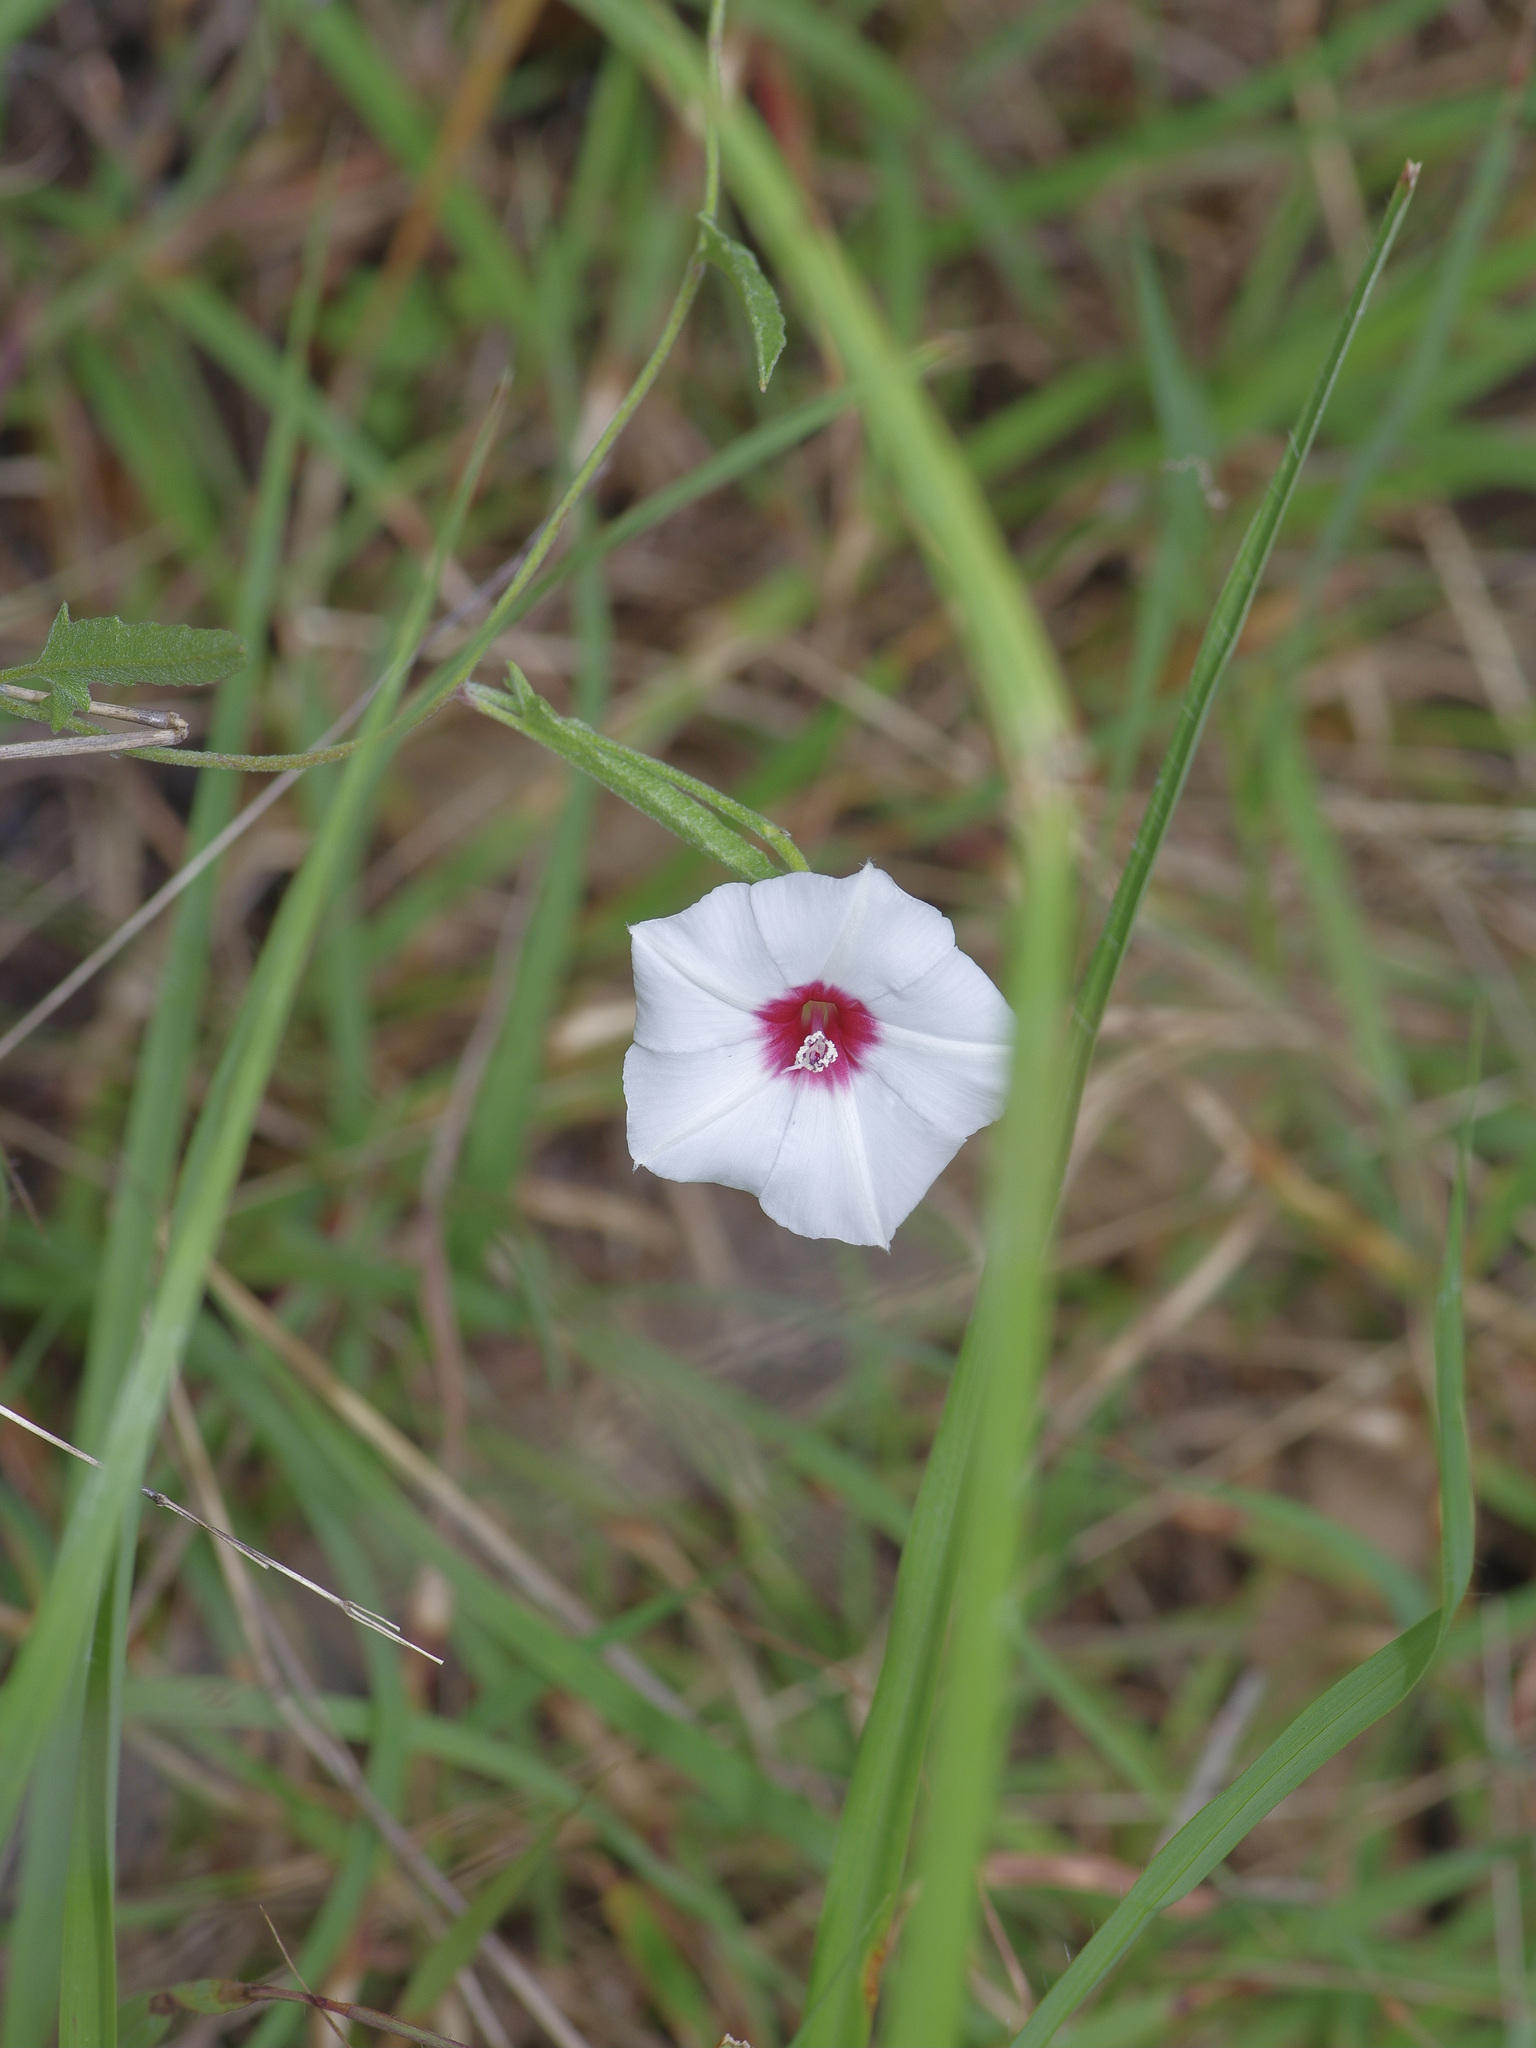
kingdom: Plantae
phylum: Tracheophyta
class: Magnoliopsida
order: Solanales
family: Convolvulaceae
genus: Convolvulus
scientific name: Convolvulus equitans
